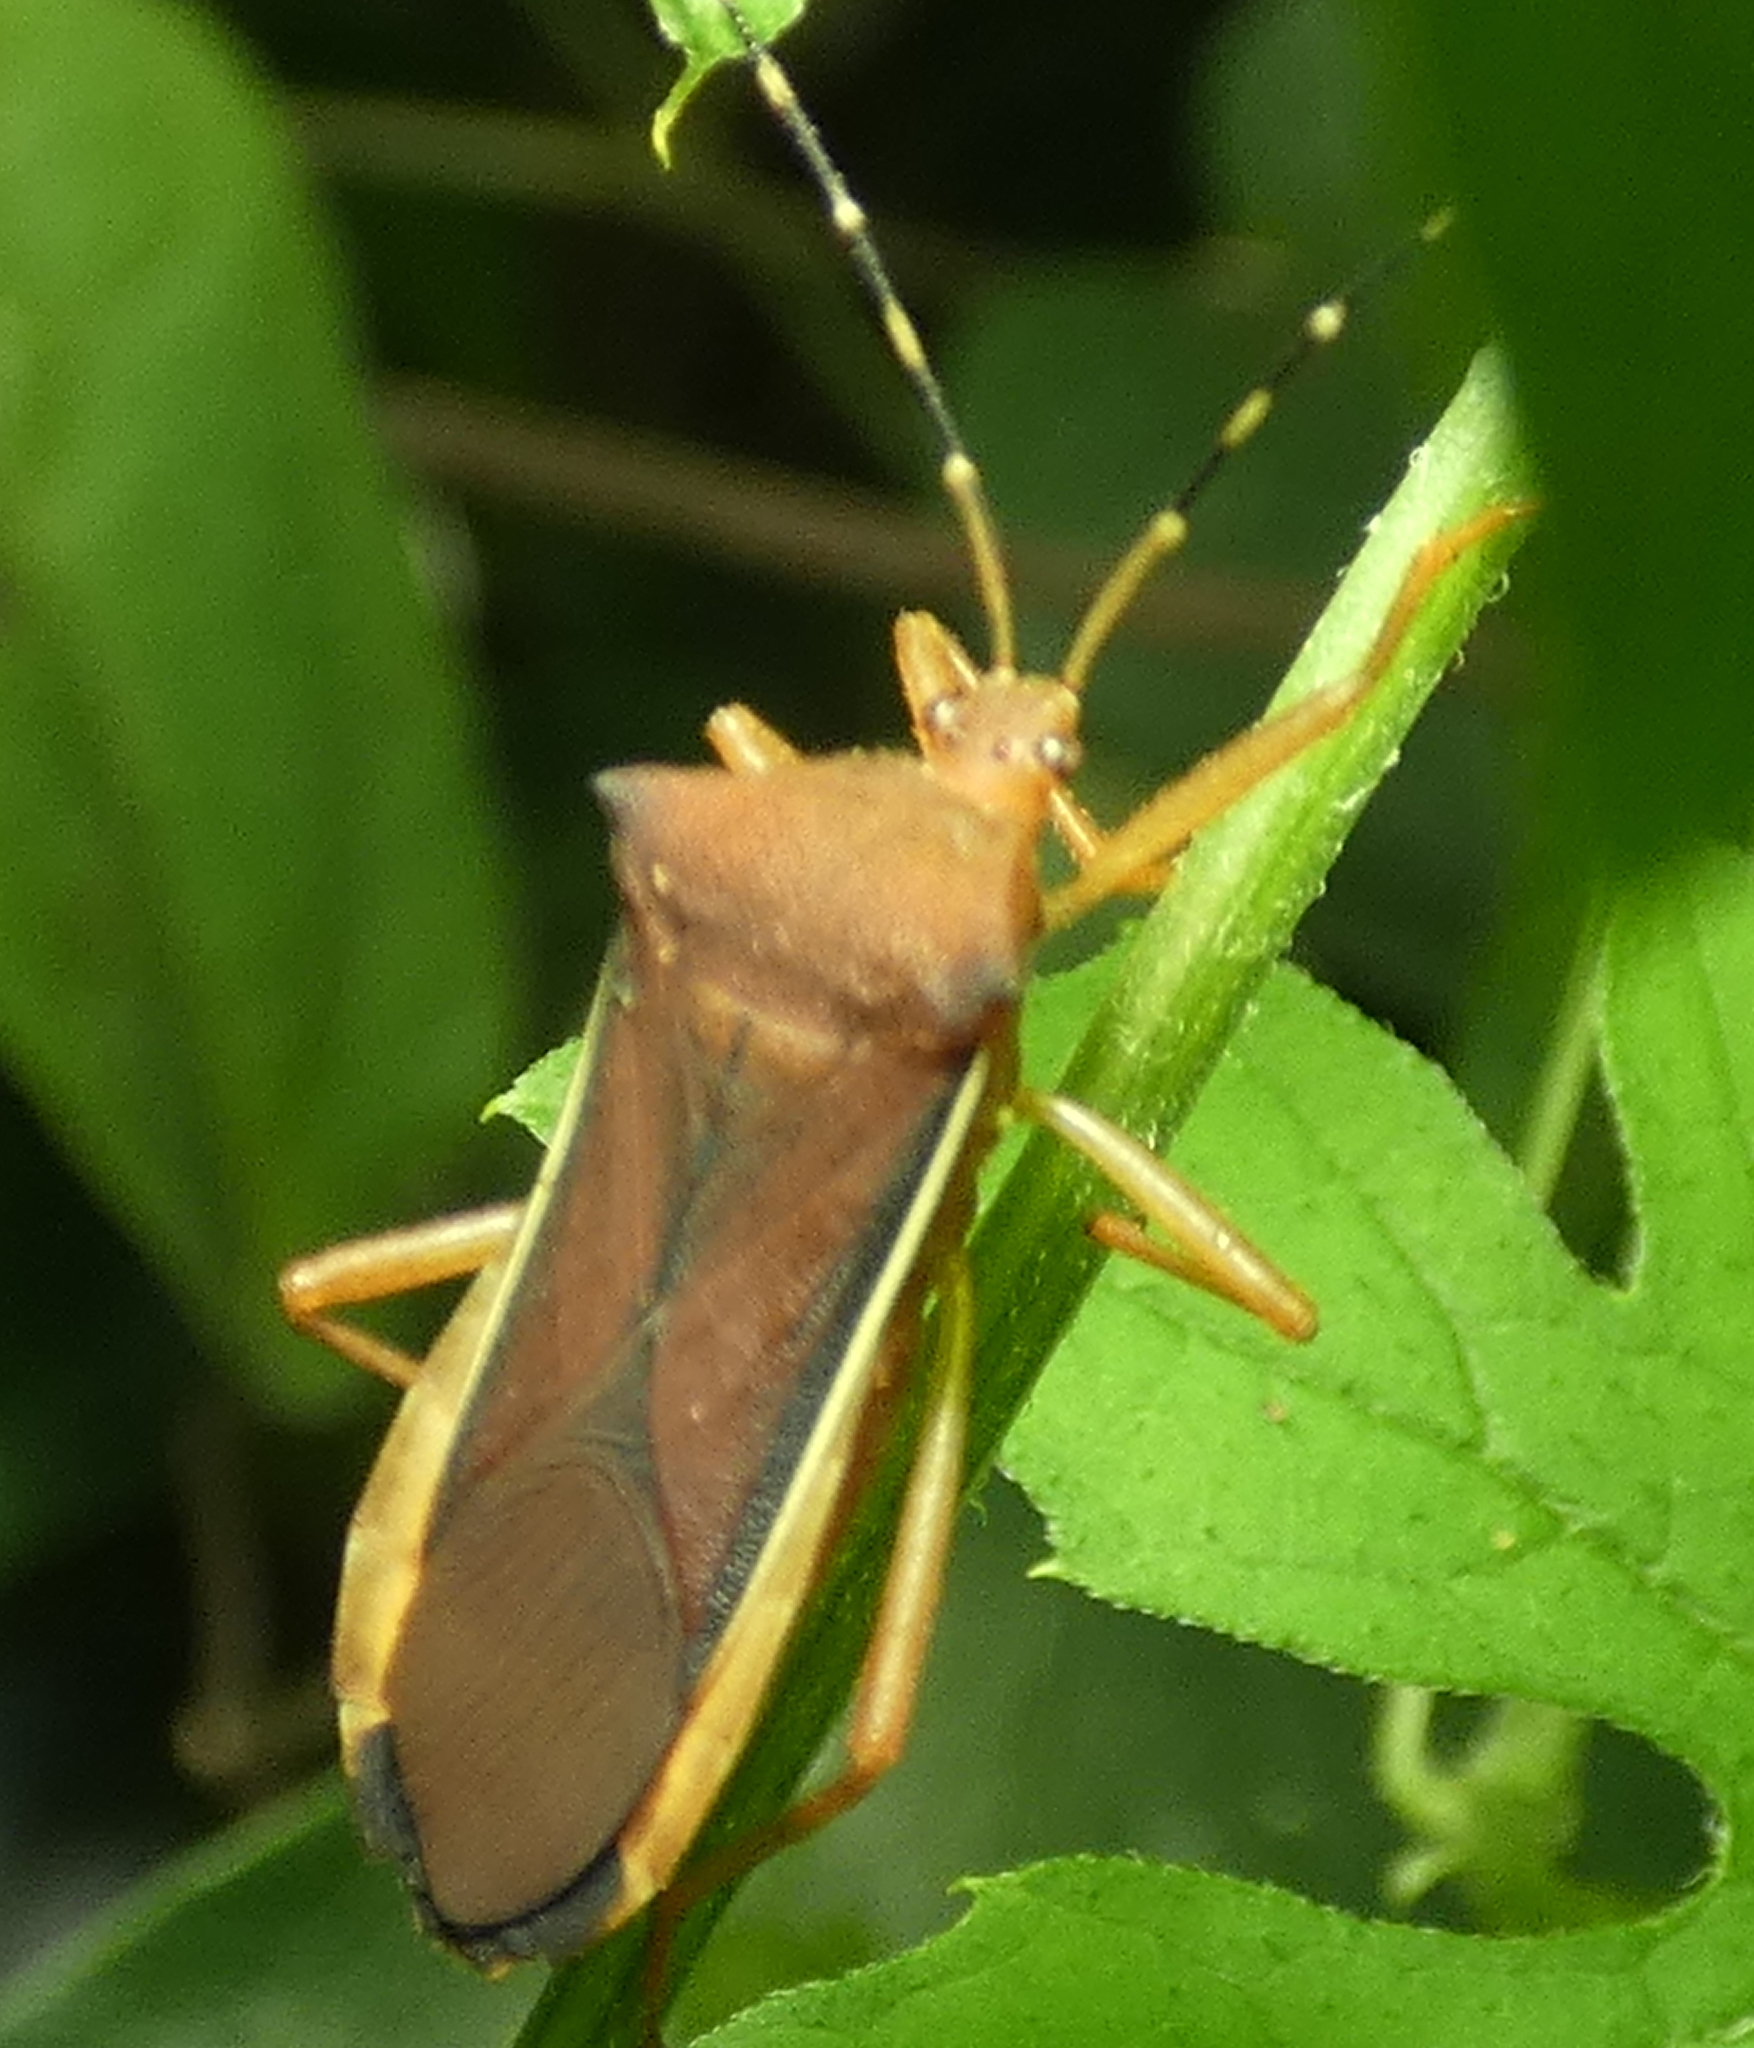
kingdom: Animalia
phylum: Arthropoda
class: Insecta
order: Hemiptera
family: Coreidae
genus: Anasa
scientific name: Anasa varicornis
